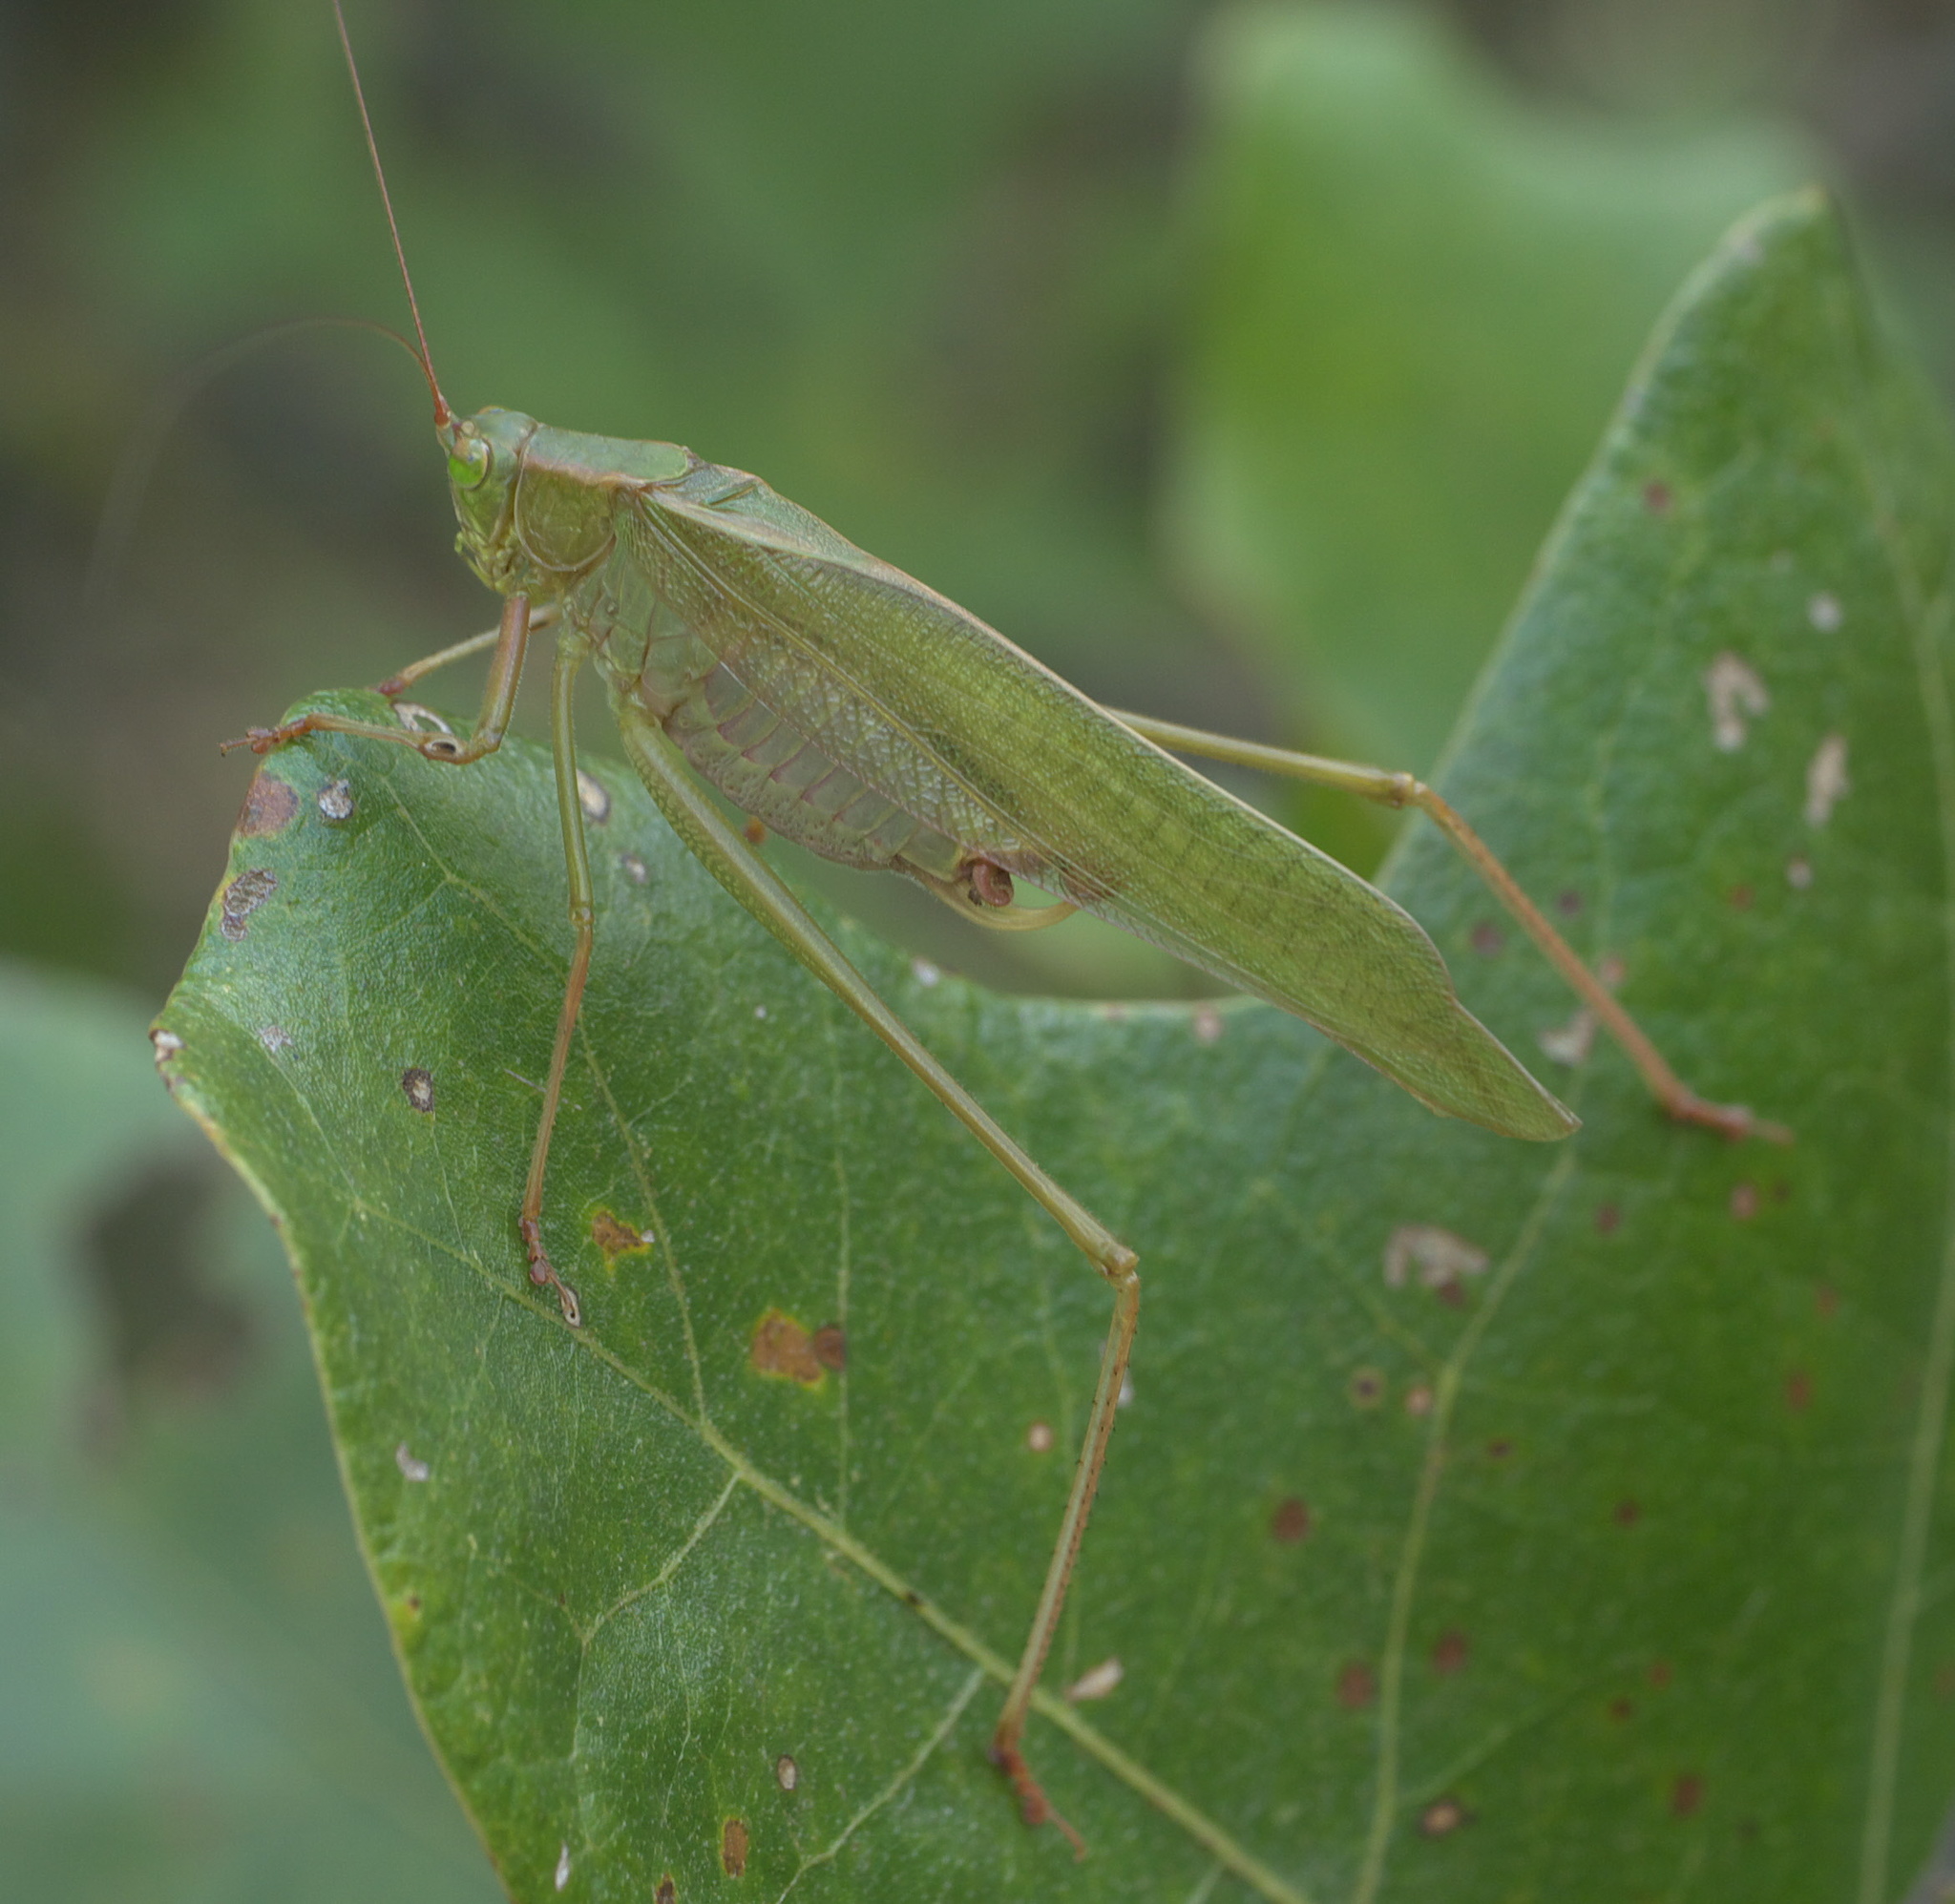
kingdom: Animalia
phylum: Arthropoda
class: Insecta
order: Orthoptera
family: Tettigoniidae
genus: Scudderia
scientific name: Scudderia furcata
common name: Fork-tailed bush katydid
